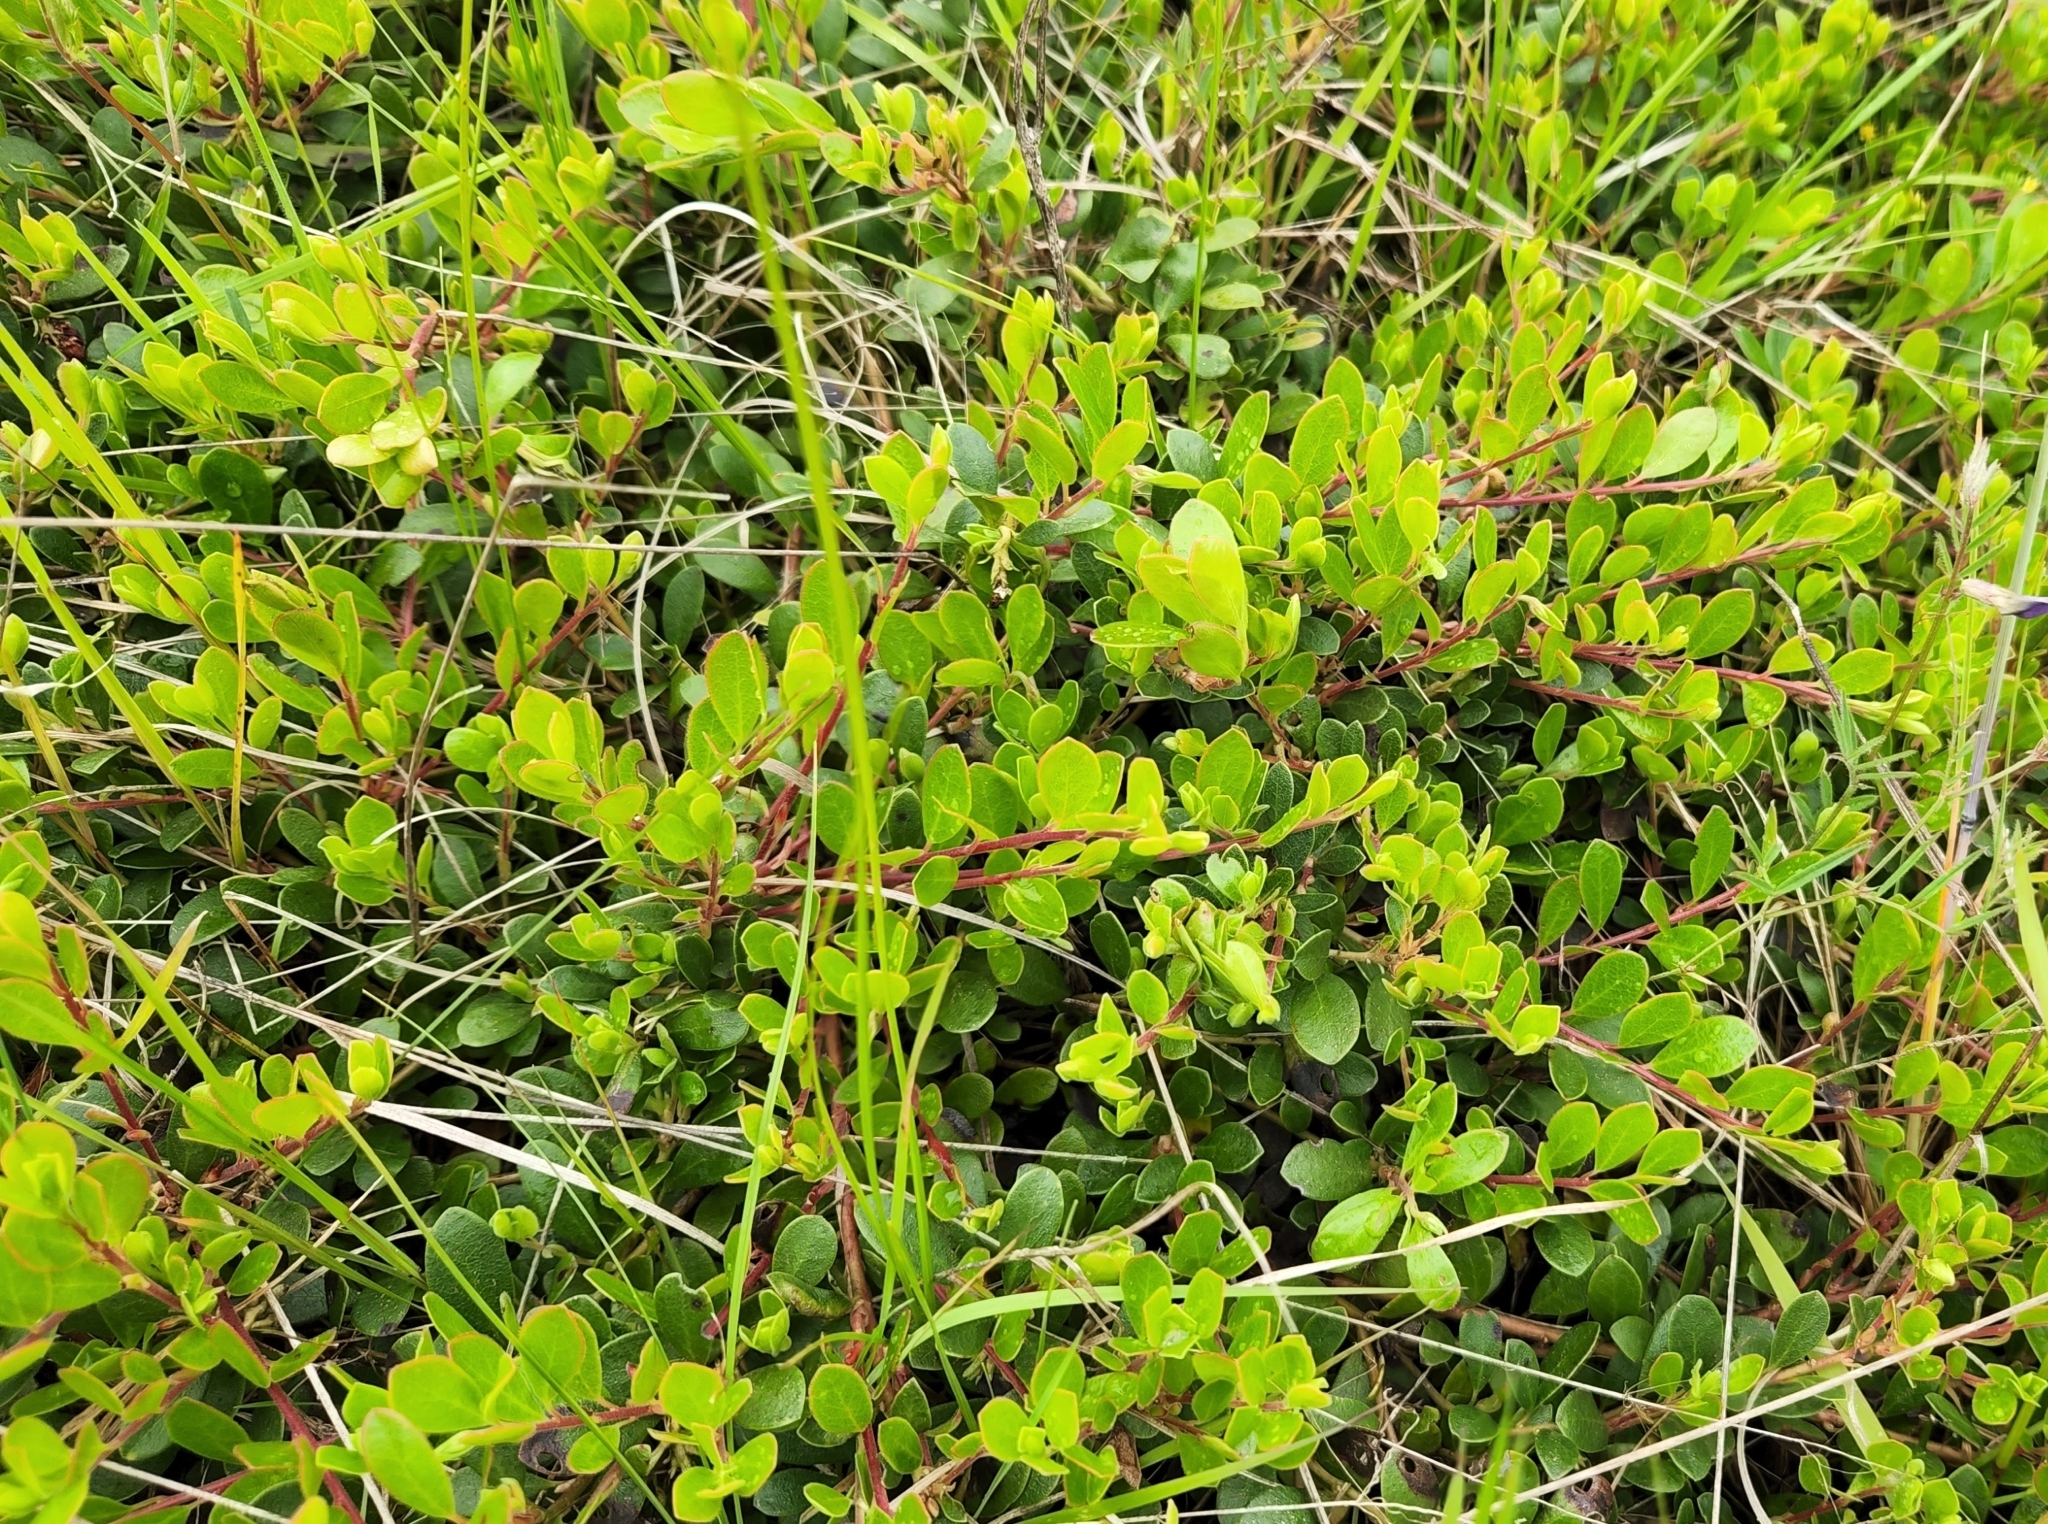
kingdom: Plantae
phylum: Tracheophyta
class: Magnoliopsida
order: Ericales
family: Ericaceae
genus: Arctostaphylos
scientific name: Arctostaphylos uva-ursi
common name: Bearberry
